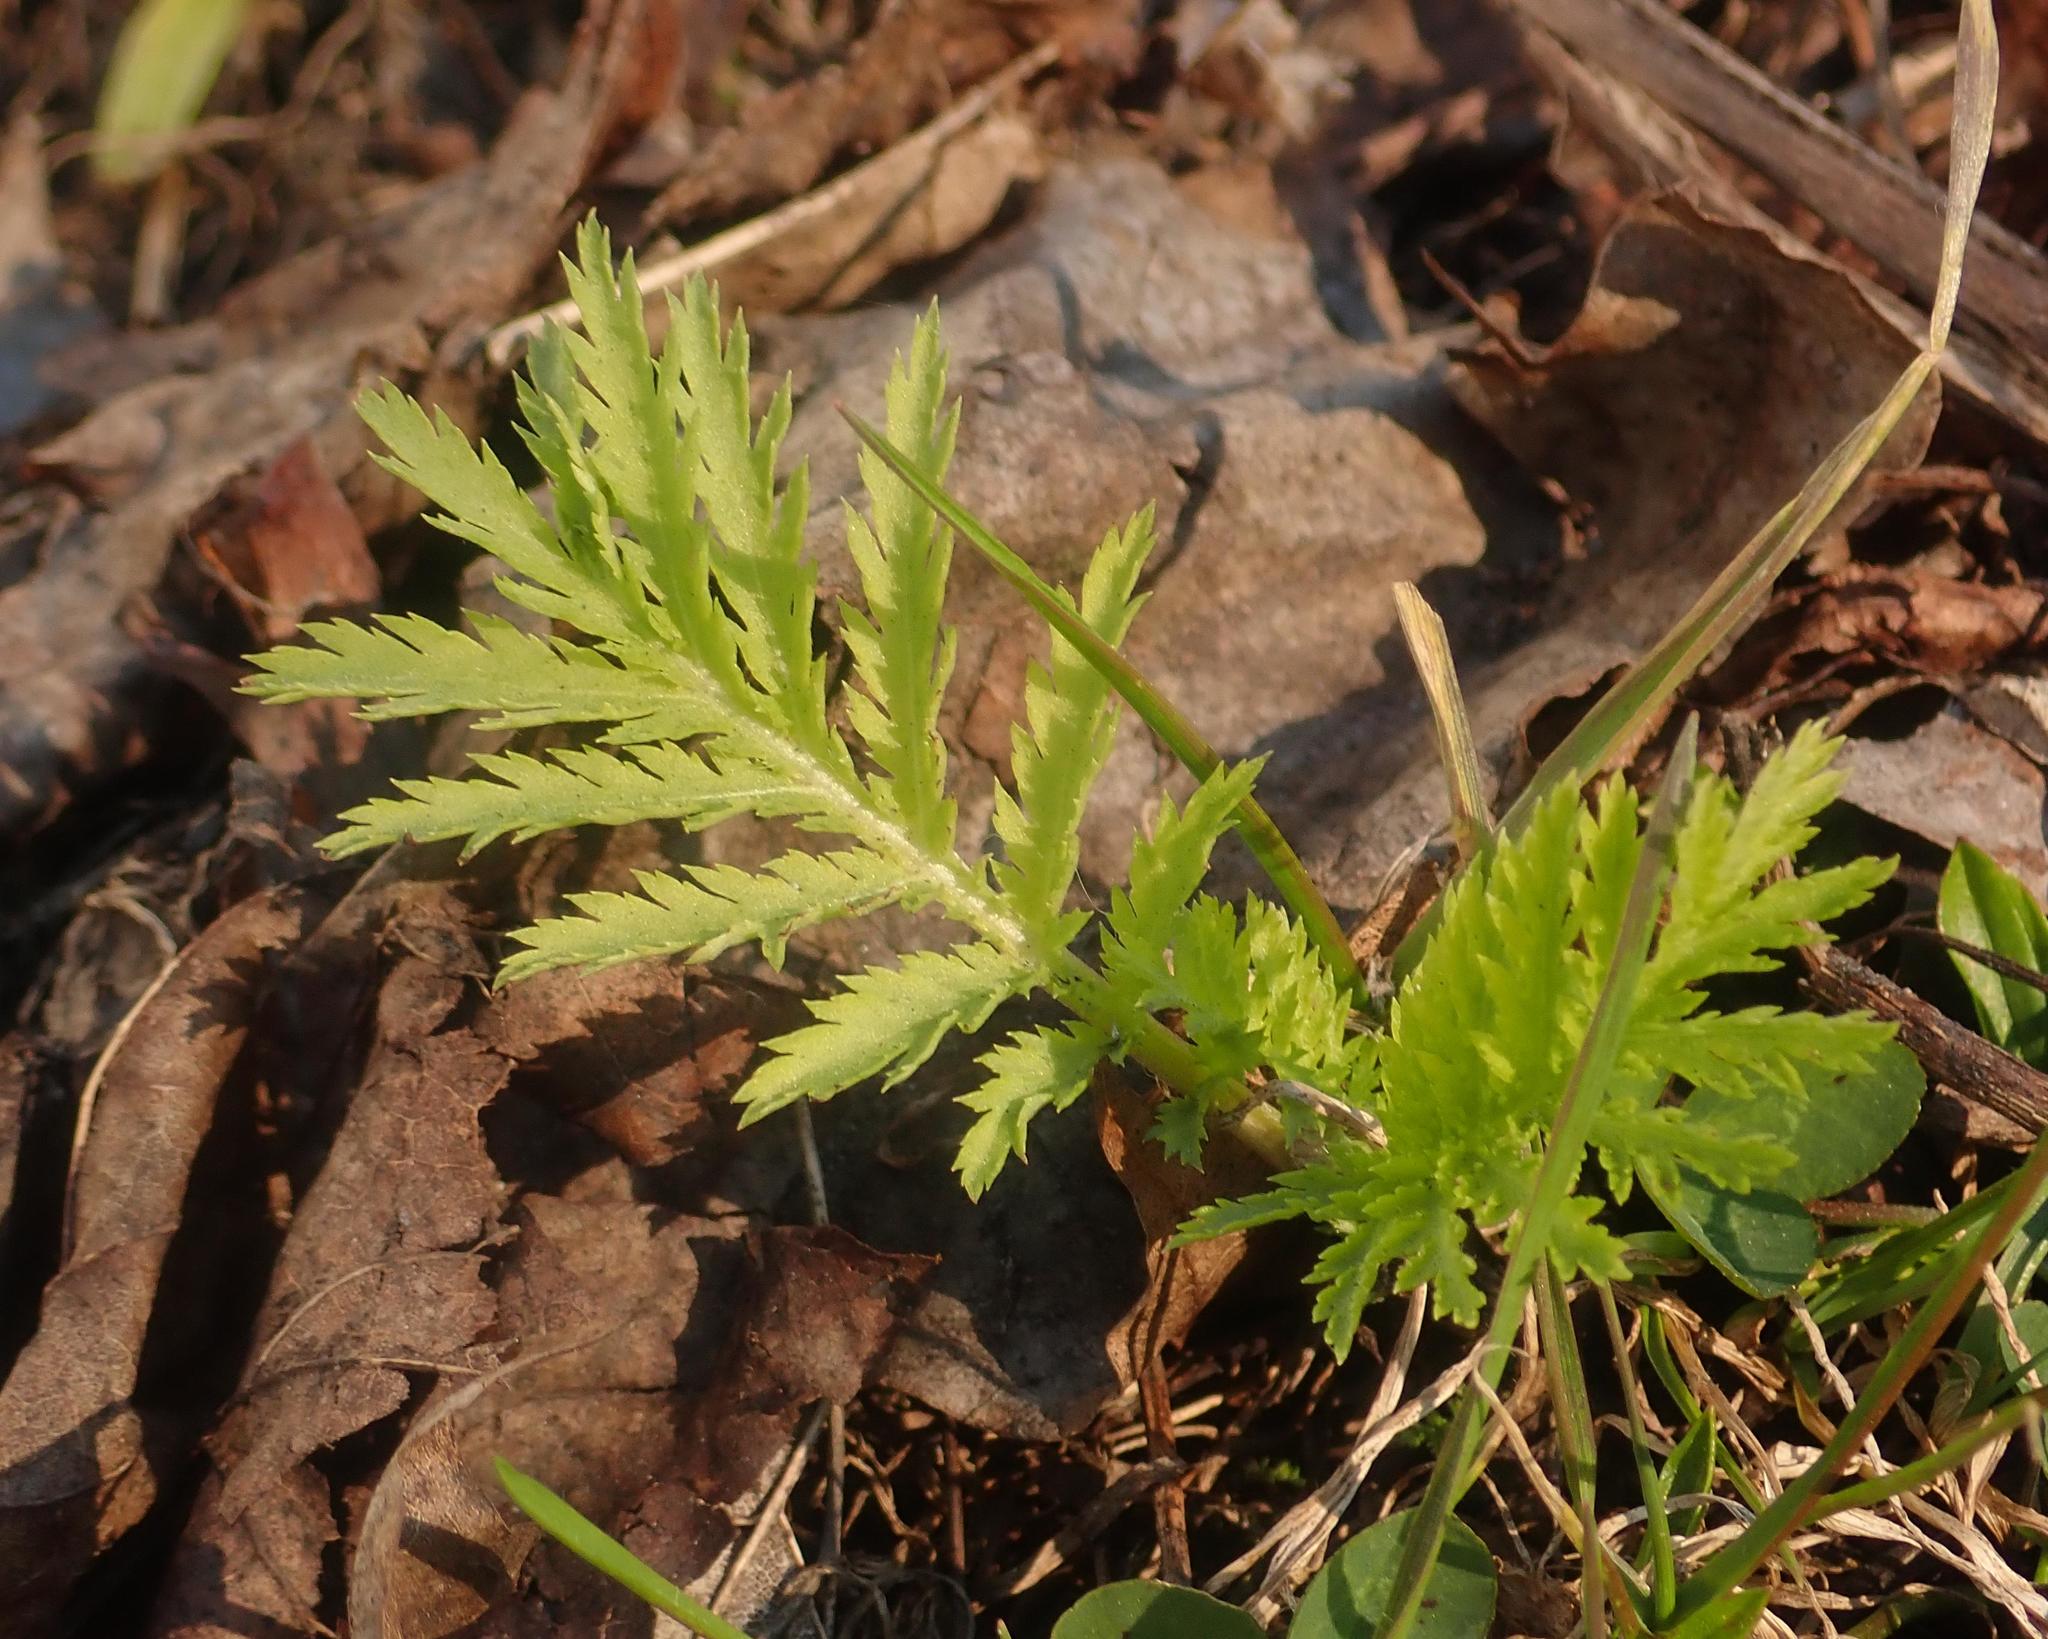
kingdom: Plantae
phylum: Tracheophyta
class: Magnoliopsida
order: Asterales
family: Asteraceae
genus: Tanacetum
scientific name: Tanacetum vulgare
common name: Common tansy
